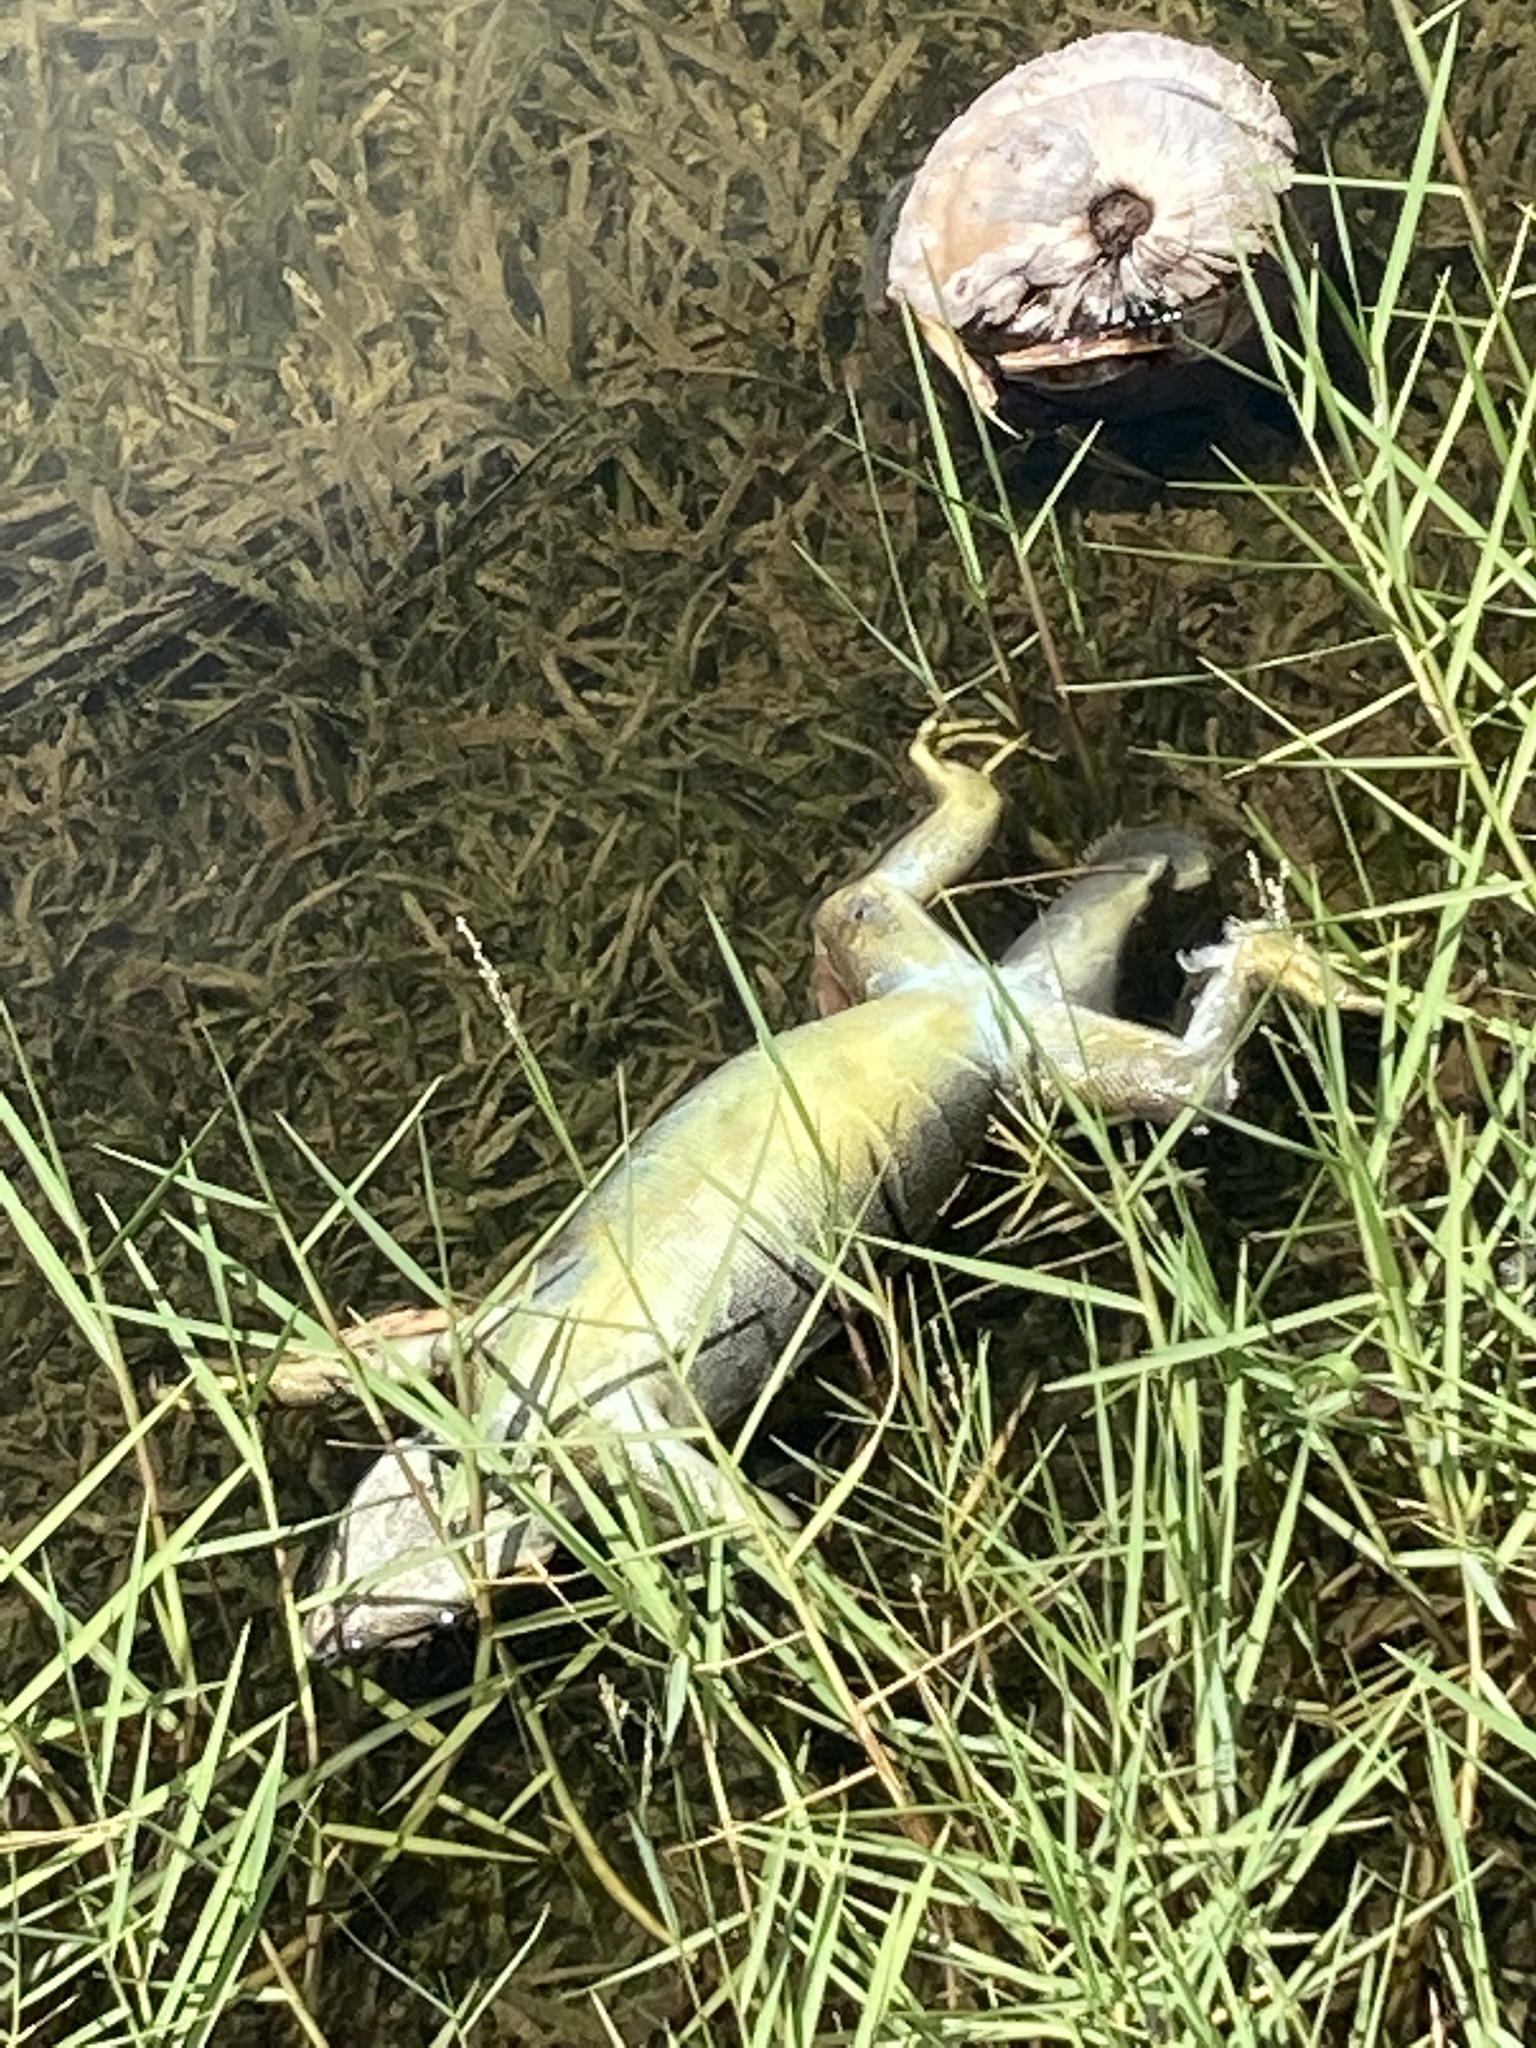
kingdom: Animalia
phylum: Chordata
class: Squamata
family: Iguanidae
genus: Iguana
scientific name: Iguana iguana
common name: Green iguana
